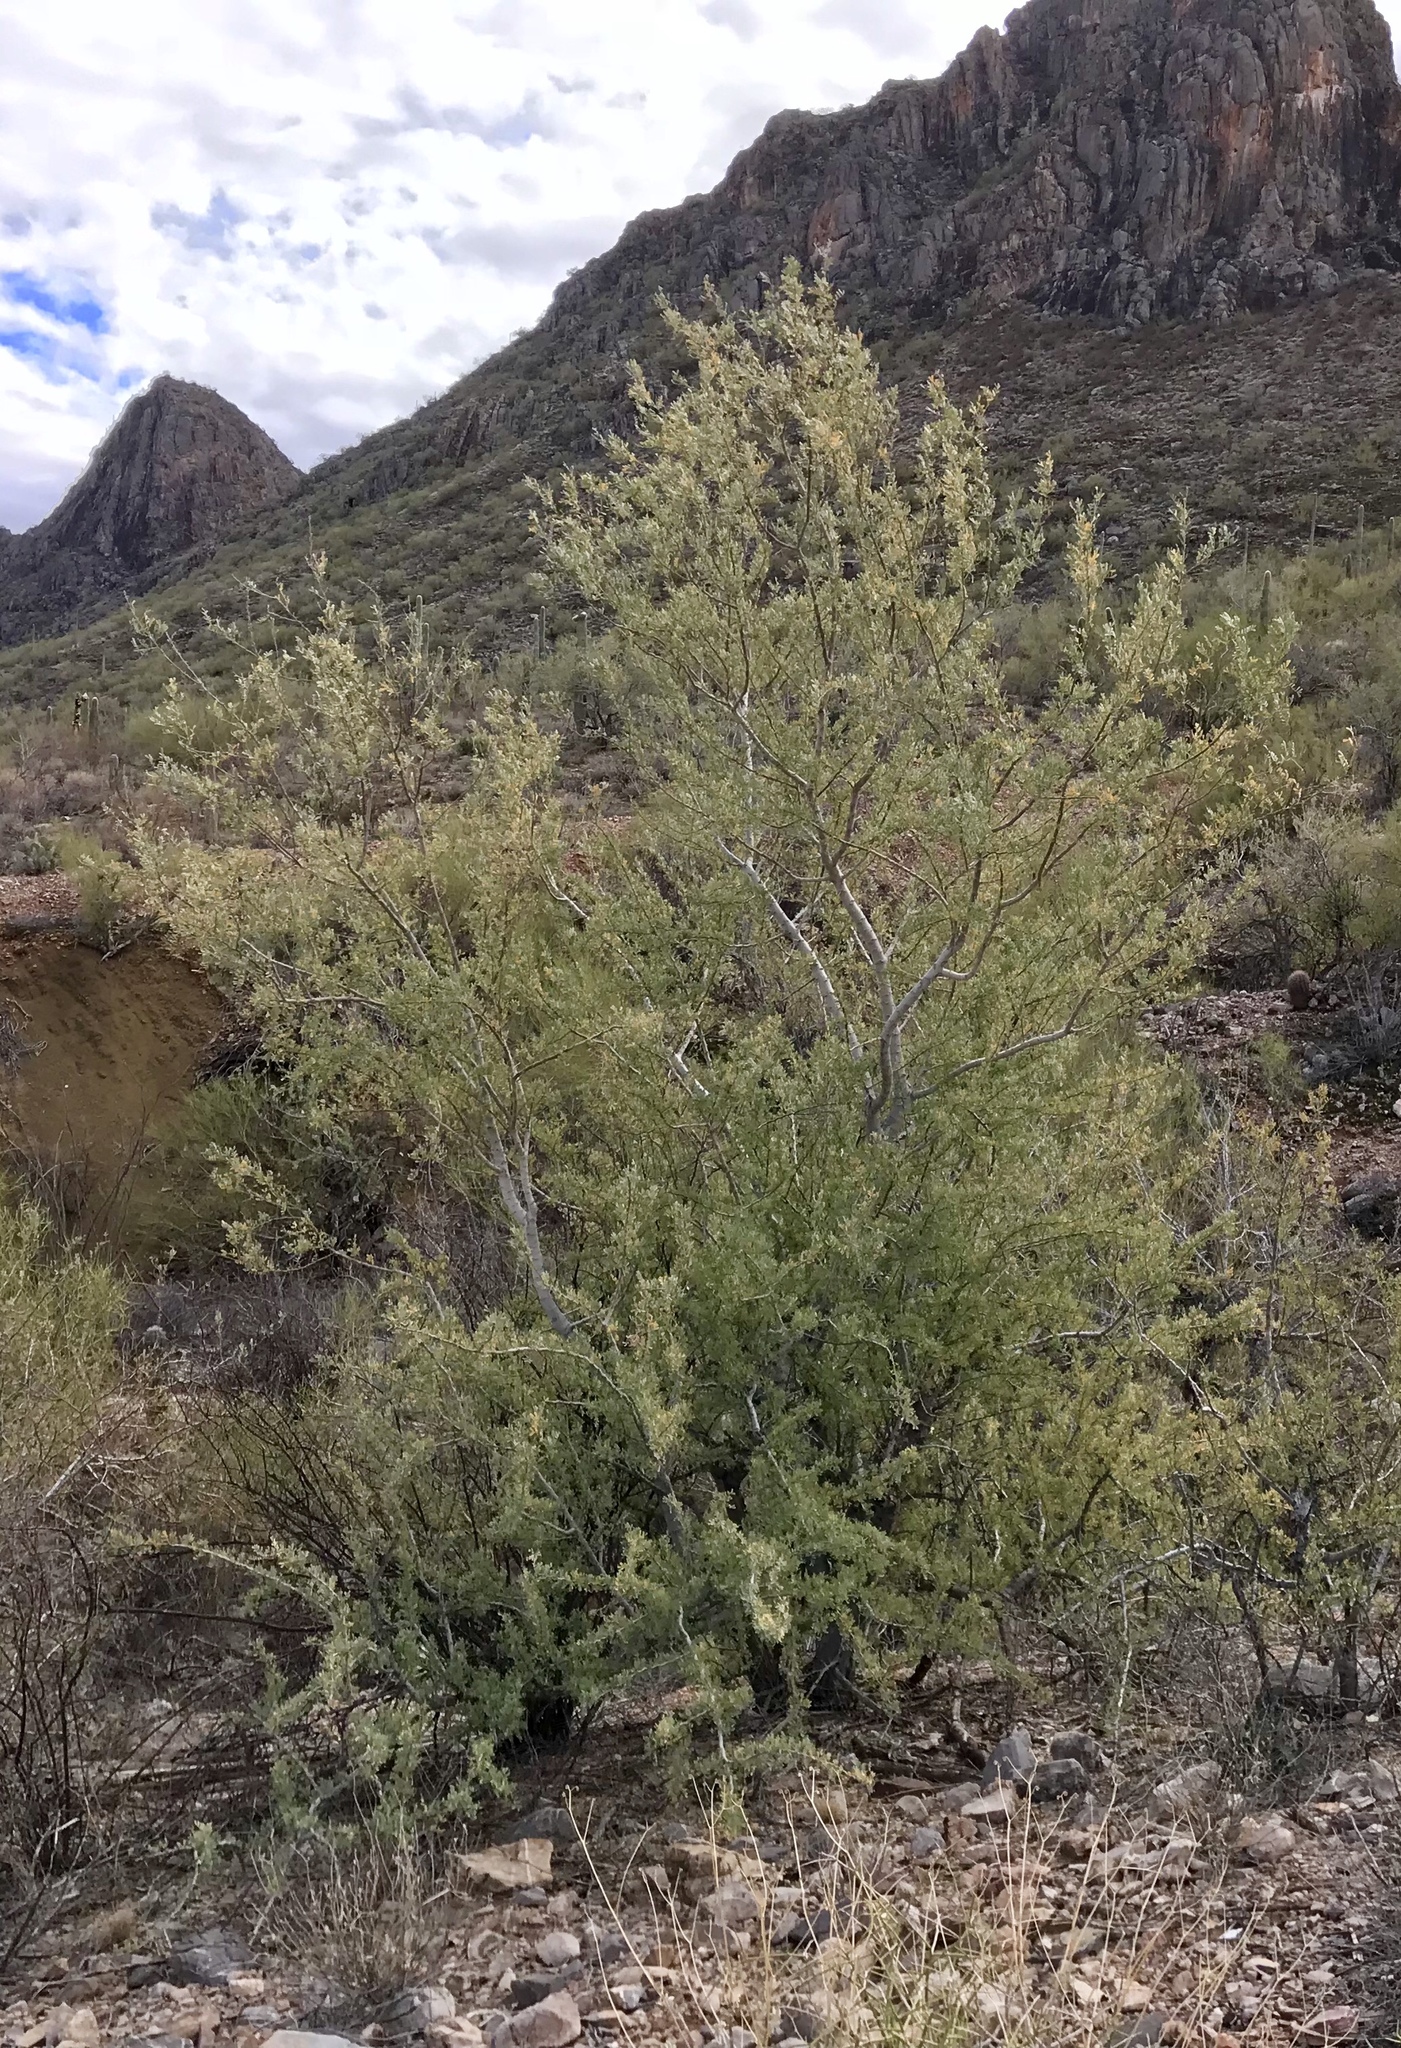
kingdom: Plantae
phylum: Tracheophyta
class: Magnoliopsida
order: Fabales
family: Fabaceae
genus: Olneya
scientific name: Olneya tesota
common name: Desert ironwood
